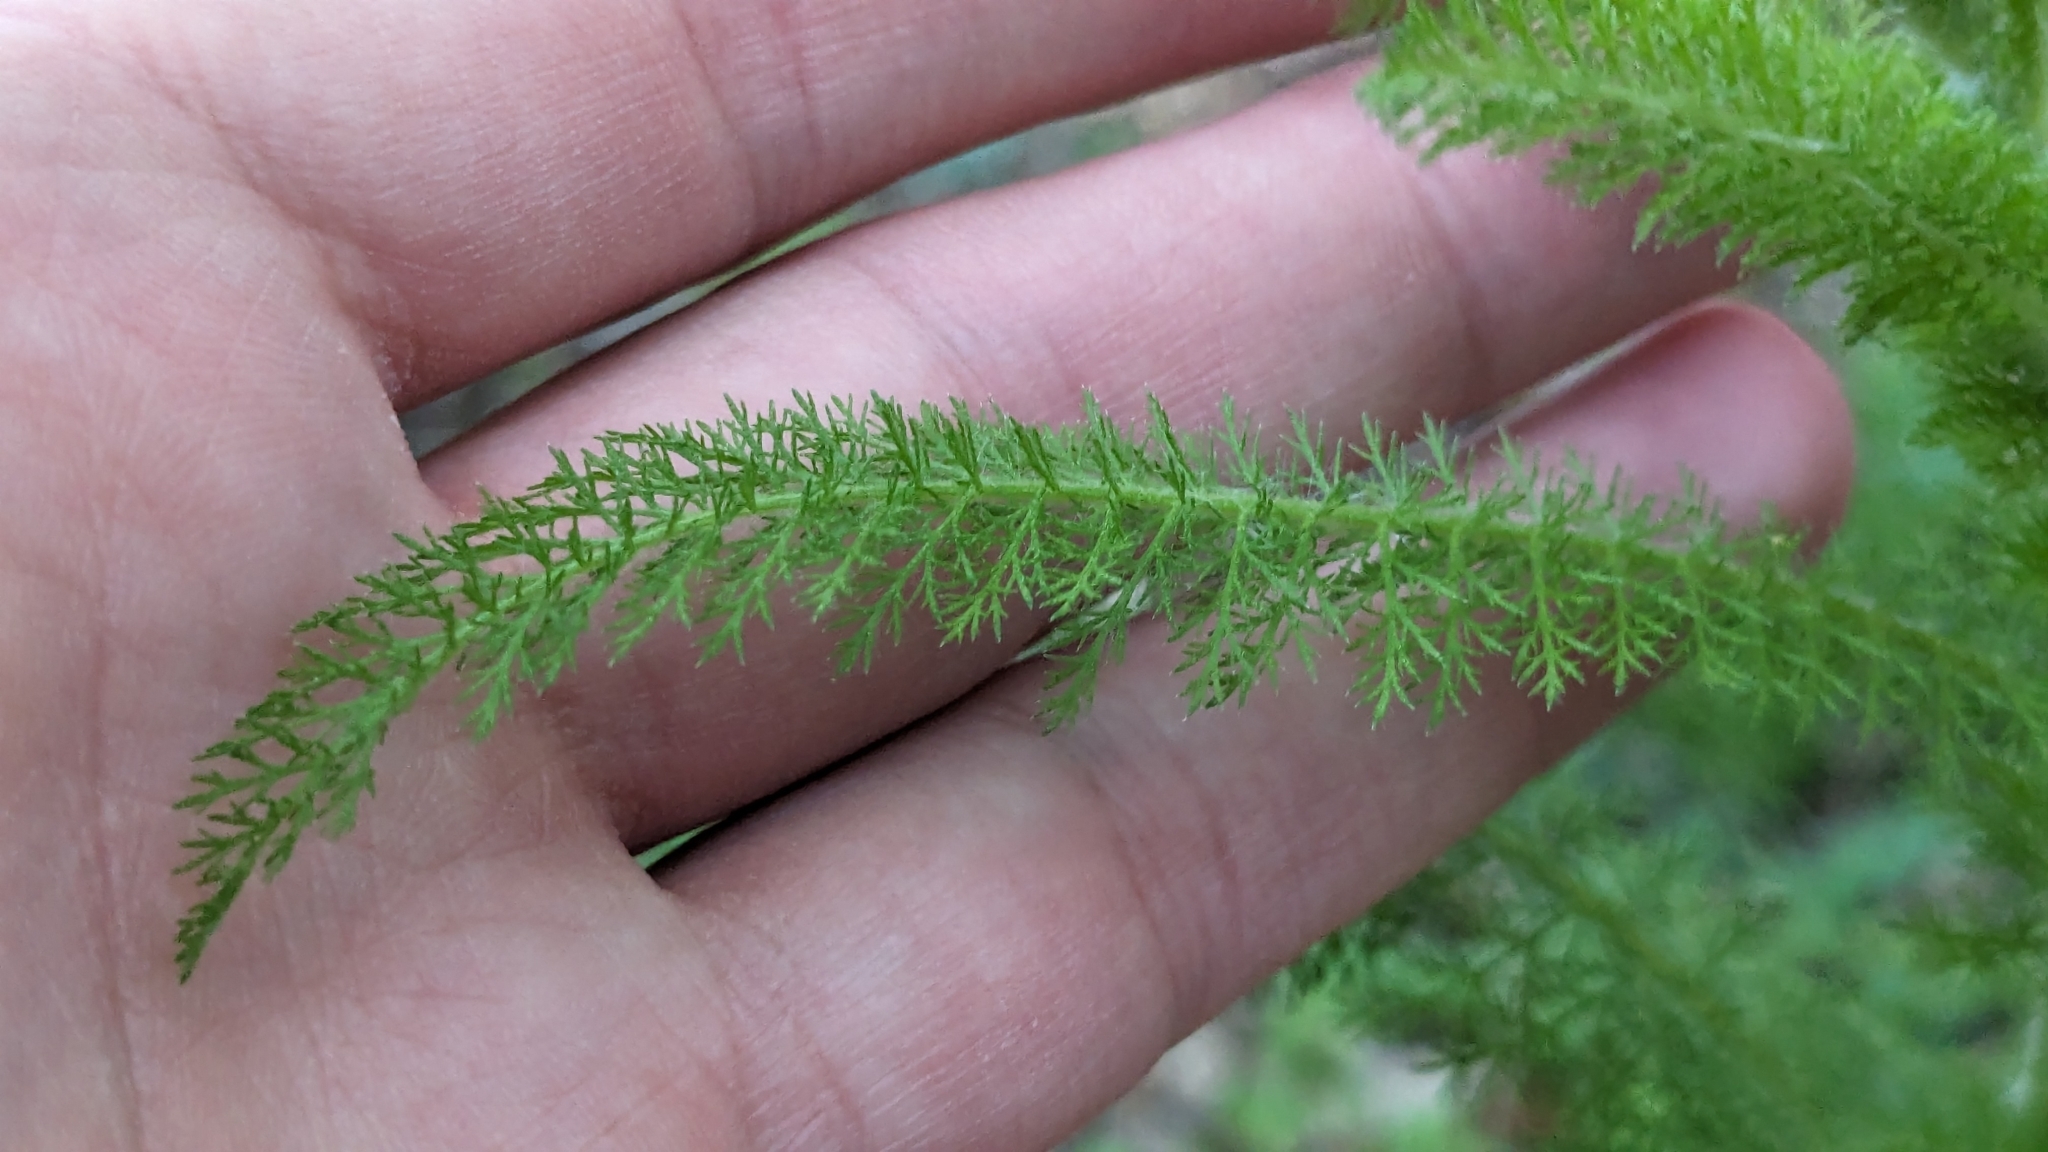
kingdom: Plantae
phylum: Tracheophyta
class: Magnoliopsida
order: Asterales
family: Asteraceae
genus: Achillea
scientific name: Achillea millefolium
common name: Yarrow
